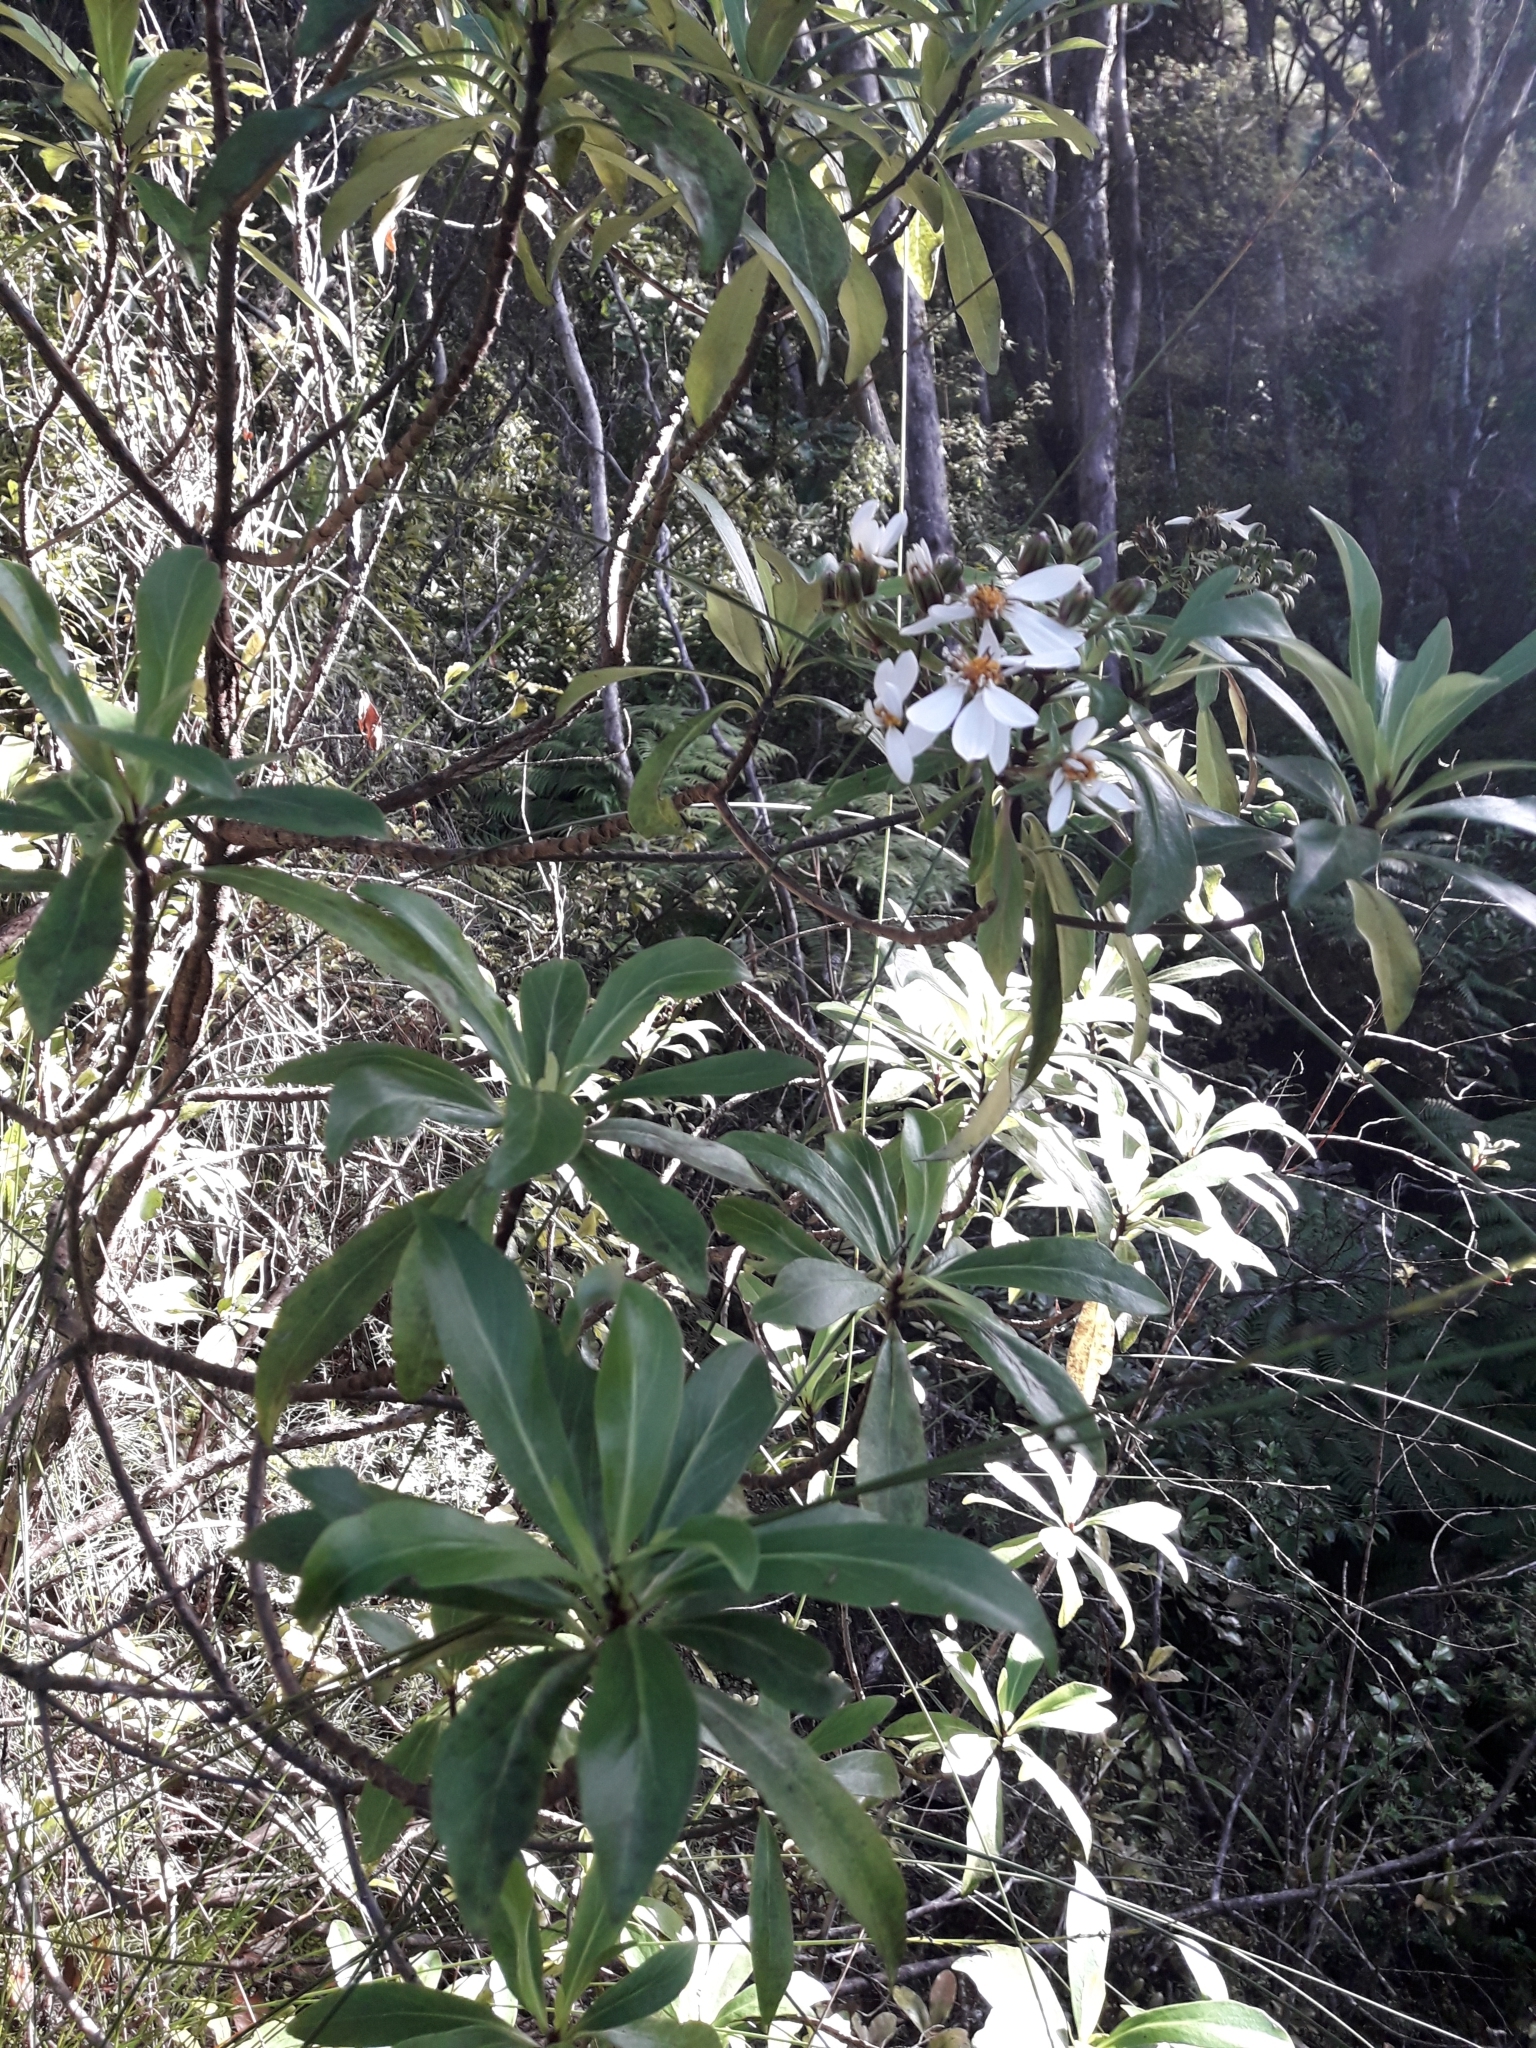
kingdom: Plantae
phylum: Tracheophyta
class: Magnoliopsida
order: Asterales
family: Asteraceae
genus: Brachyglottis
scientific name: Brachyglottis kirkii
